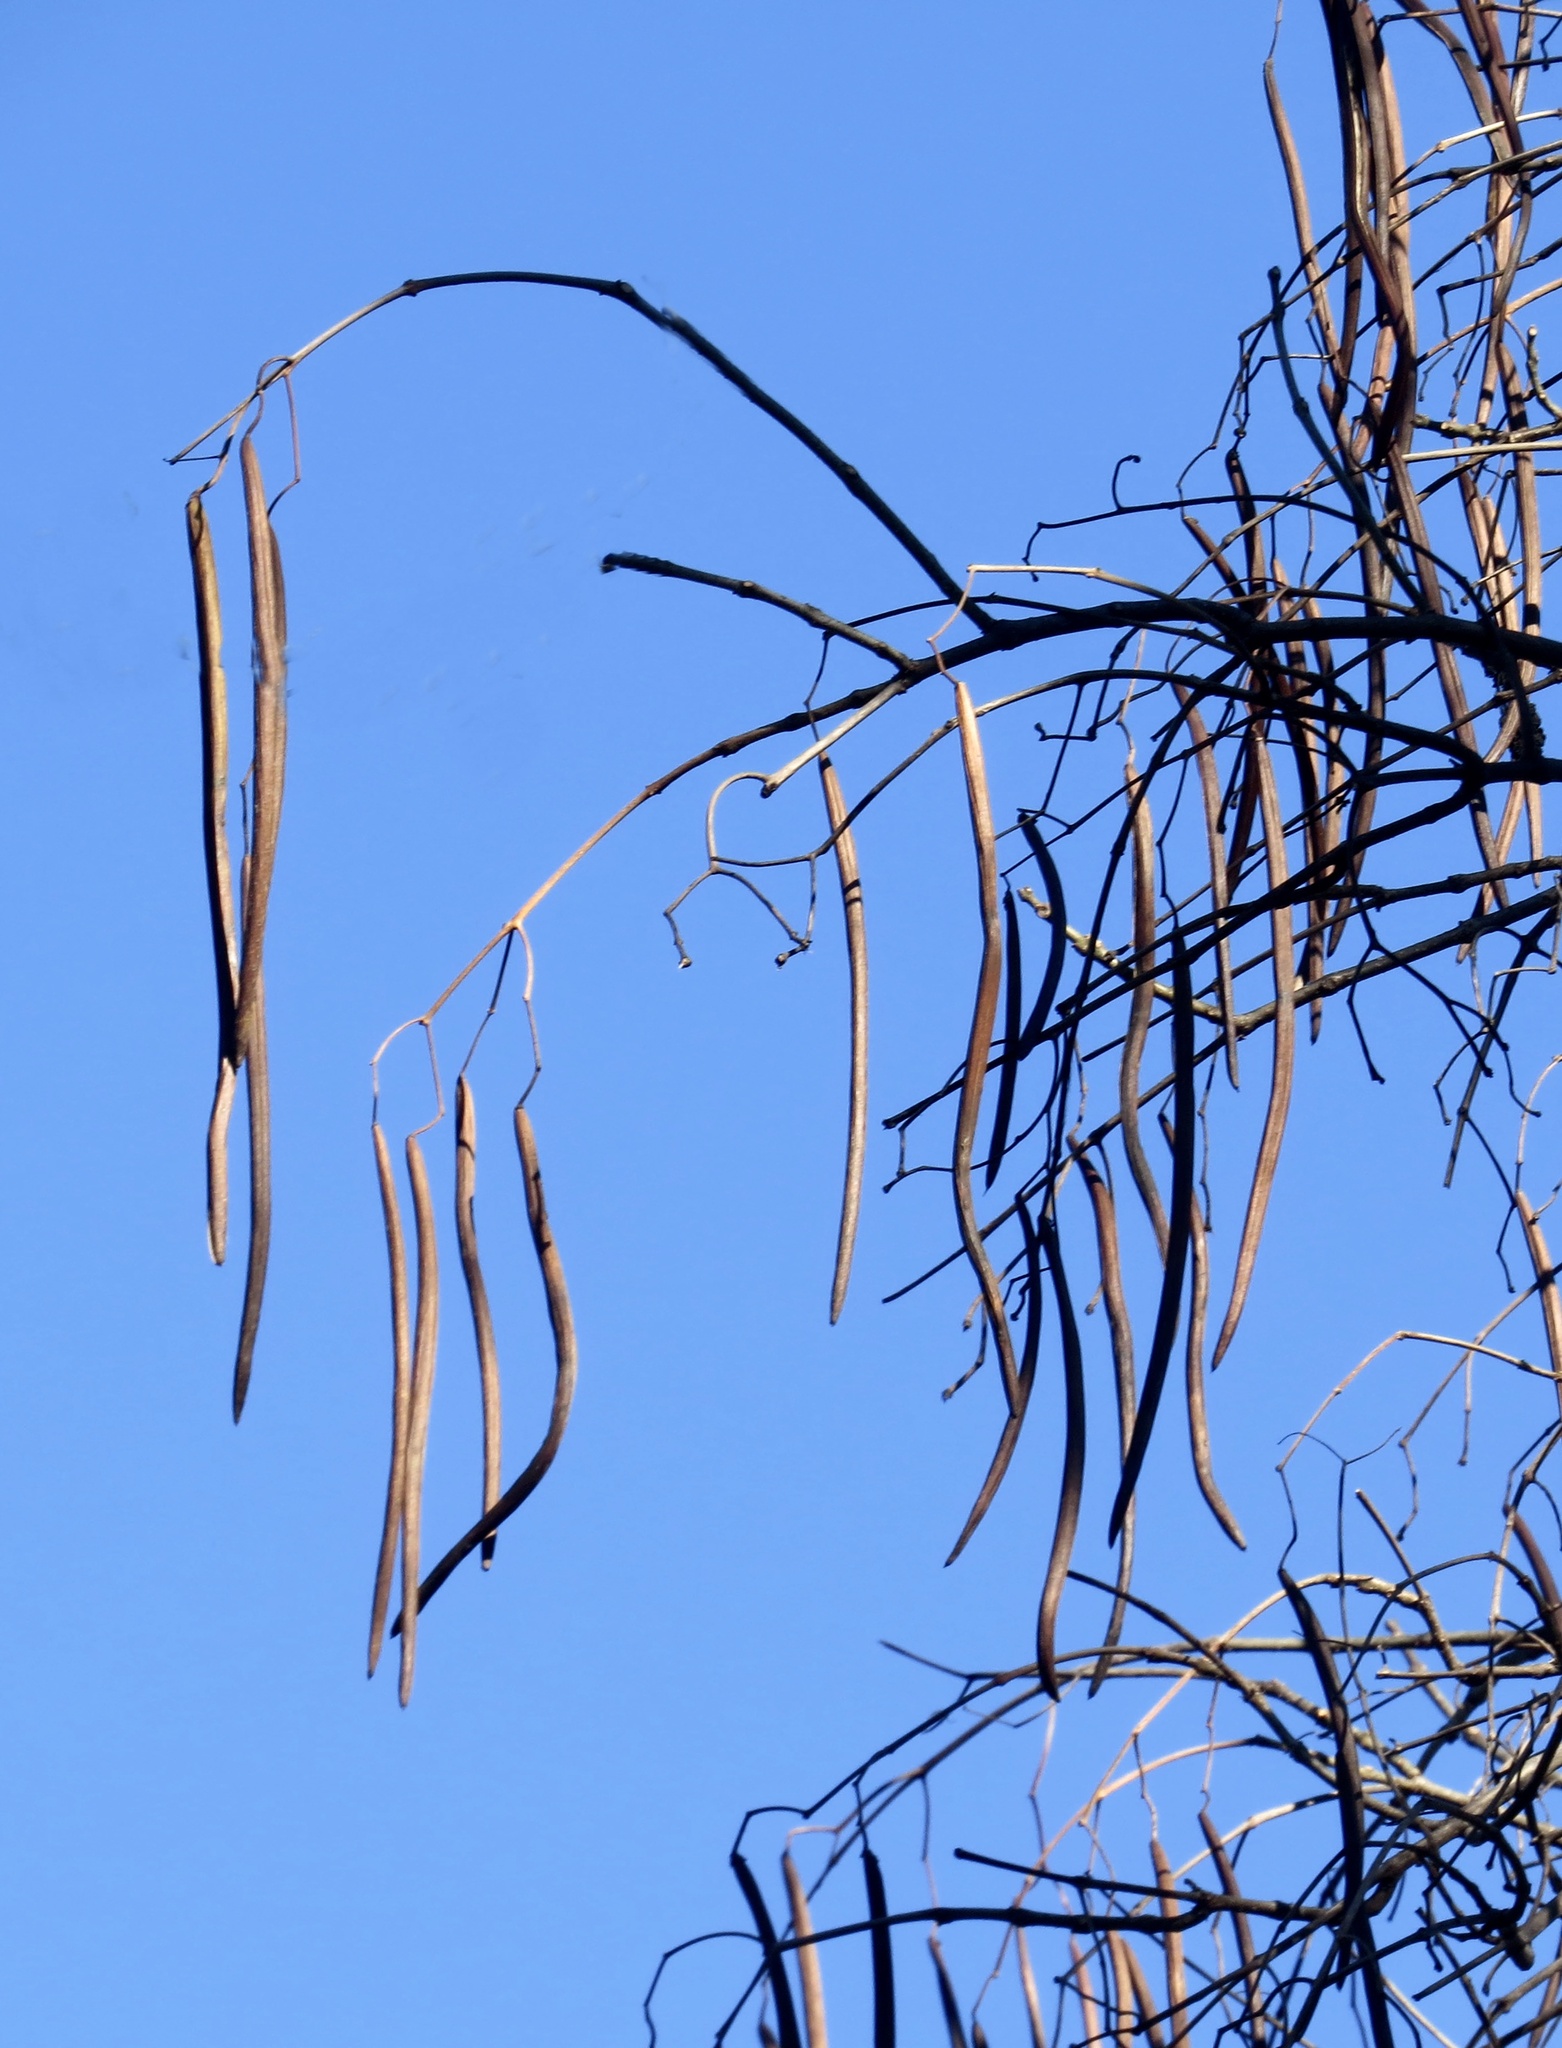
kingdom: Plantae
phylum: Tracheophyta
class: Magnoliopsida
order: Lamiales
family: Bignoniaceae
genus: Catalpa
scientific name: Catalpa
